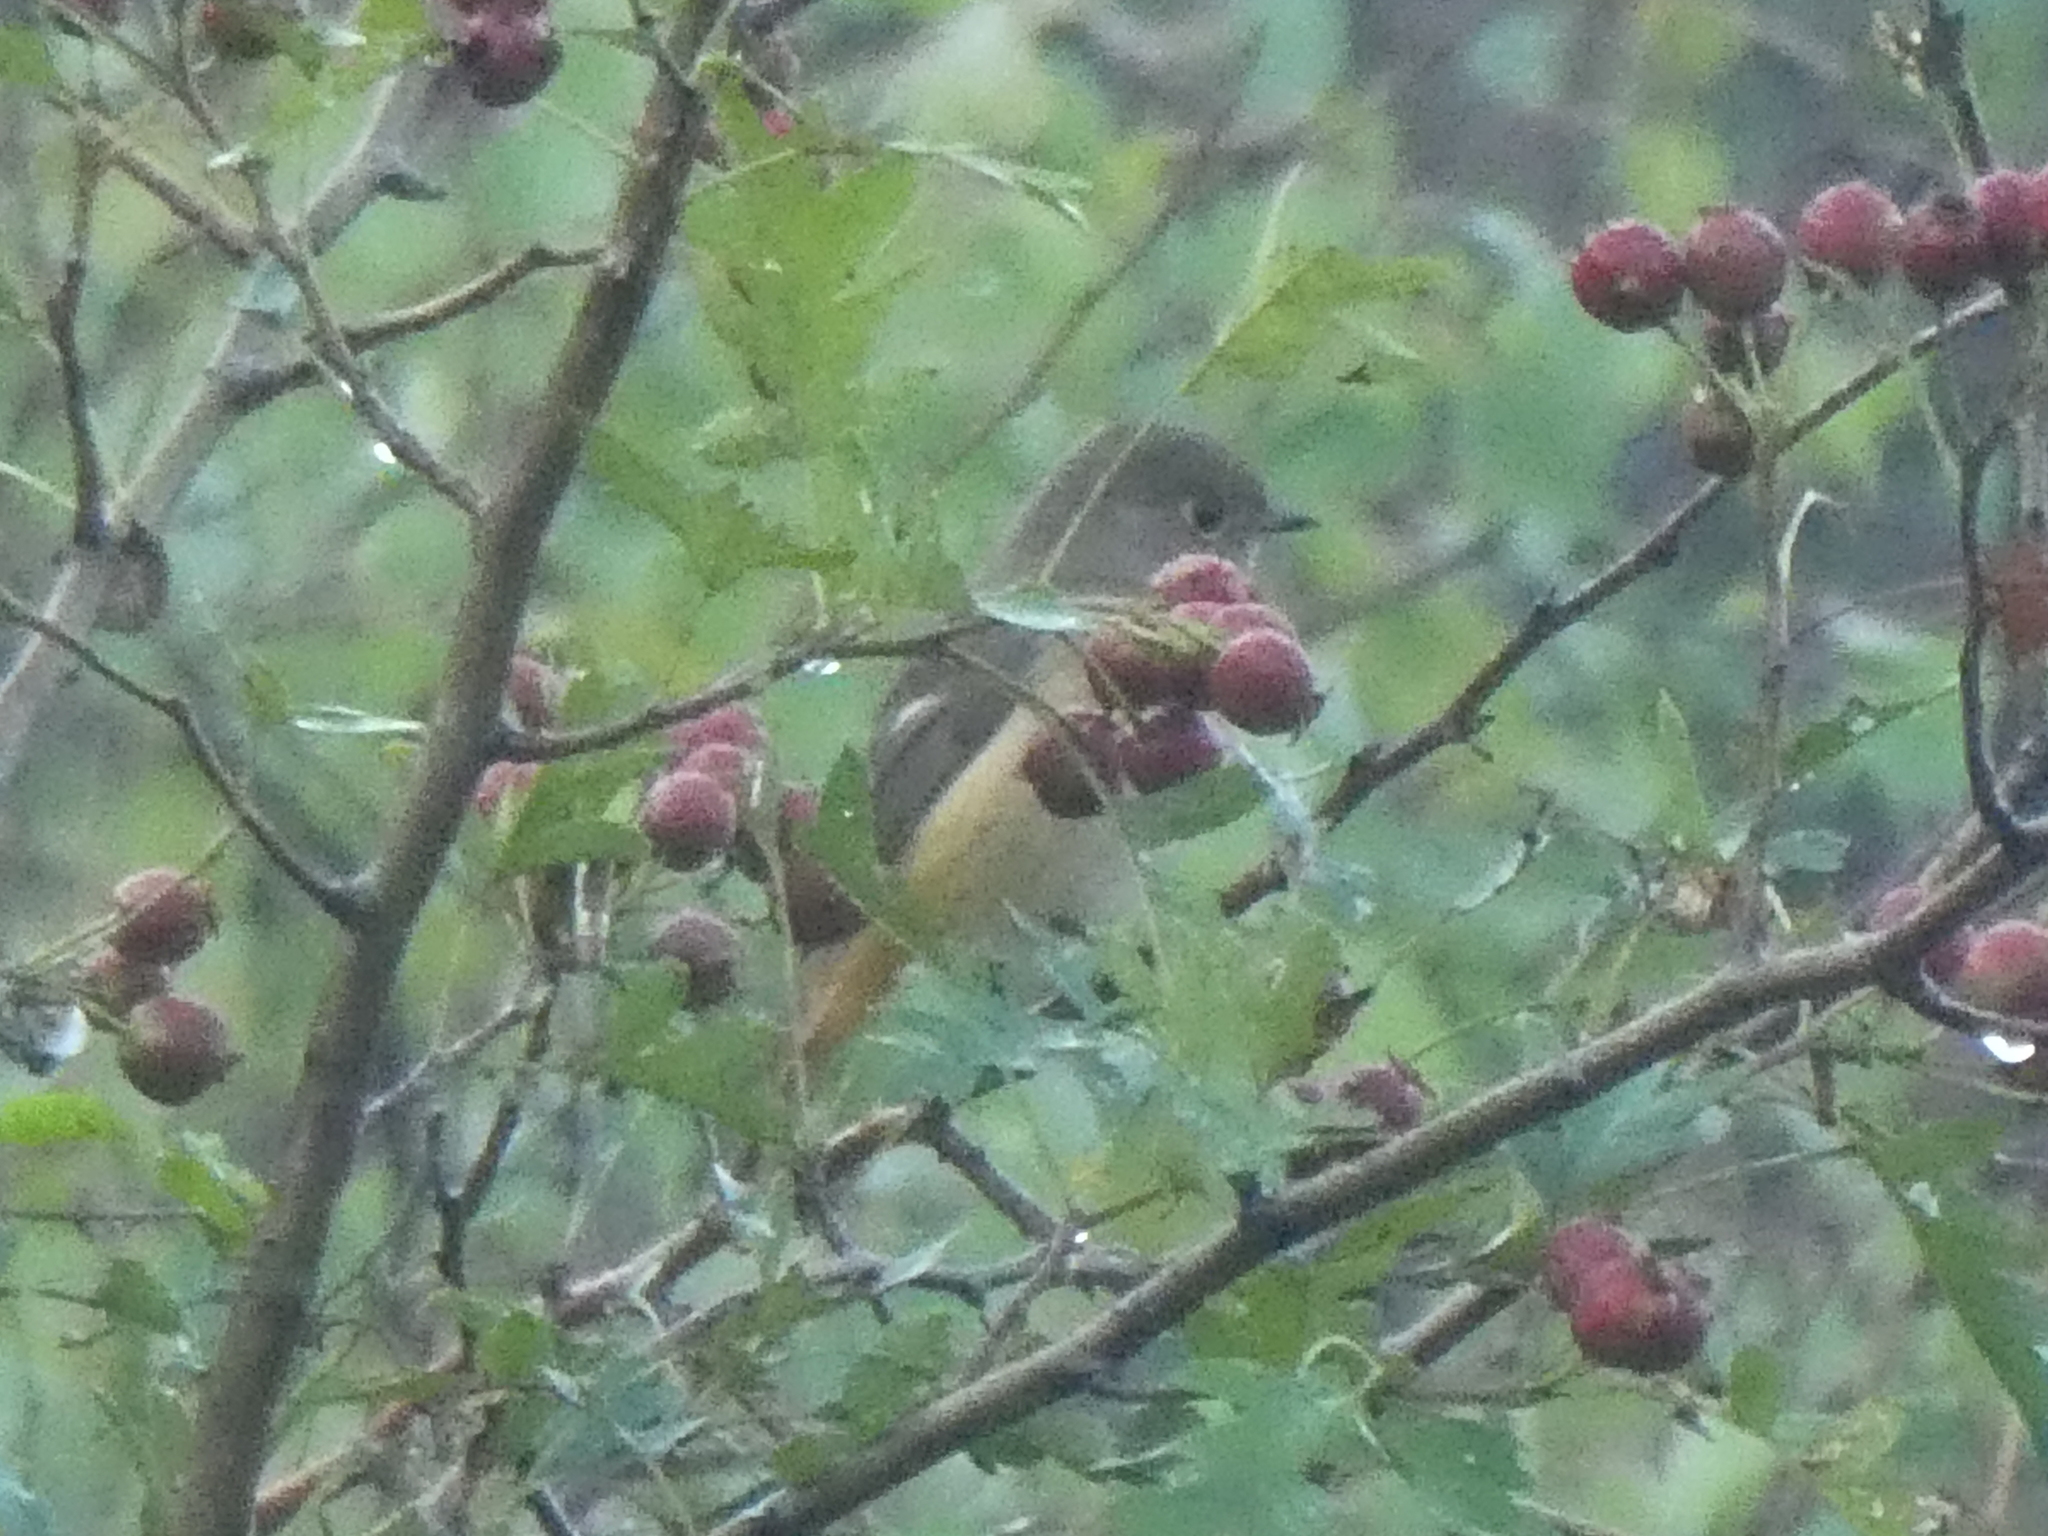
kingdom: Animalia
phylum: Chordata
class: Aves
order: Passeriformes
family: Muscicapidae
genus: Phoenicurus
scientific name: Phoenicurus auroreus
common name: Daurian redstart
